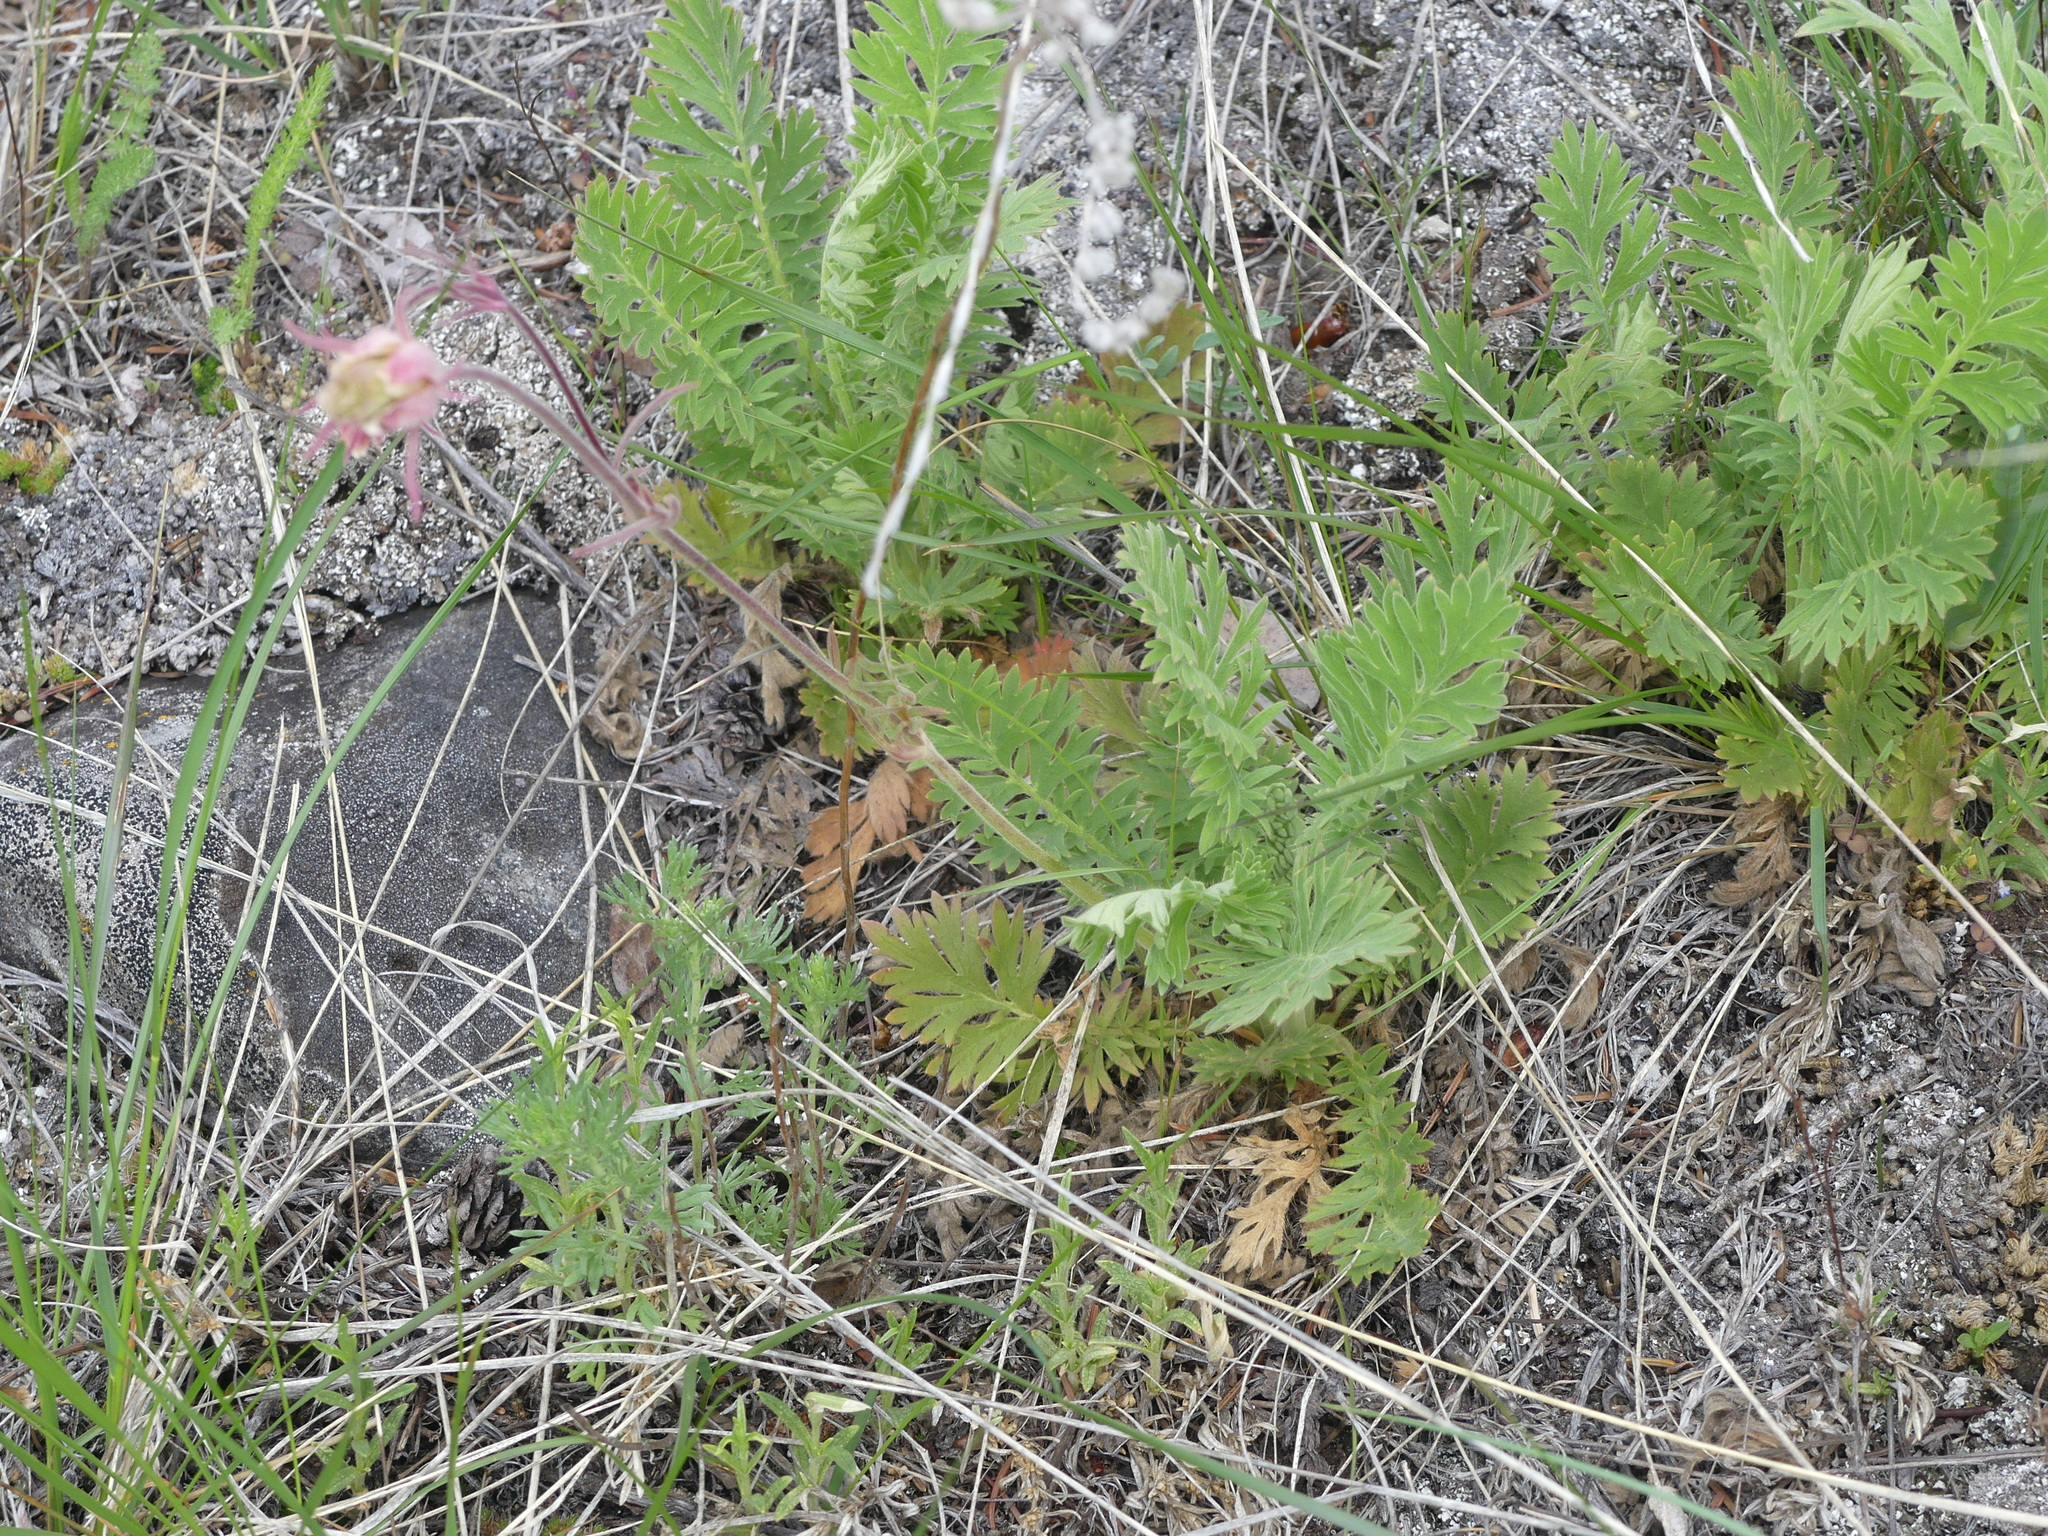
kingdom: Plantae
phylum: Tracheophyta
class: Magnoliopsida
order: Rosales
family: Rosaceae
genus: Geum
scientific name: Geum triflorum
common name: Old man's whiskers
